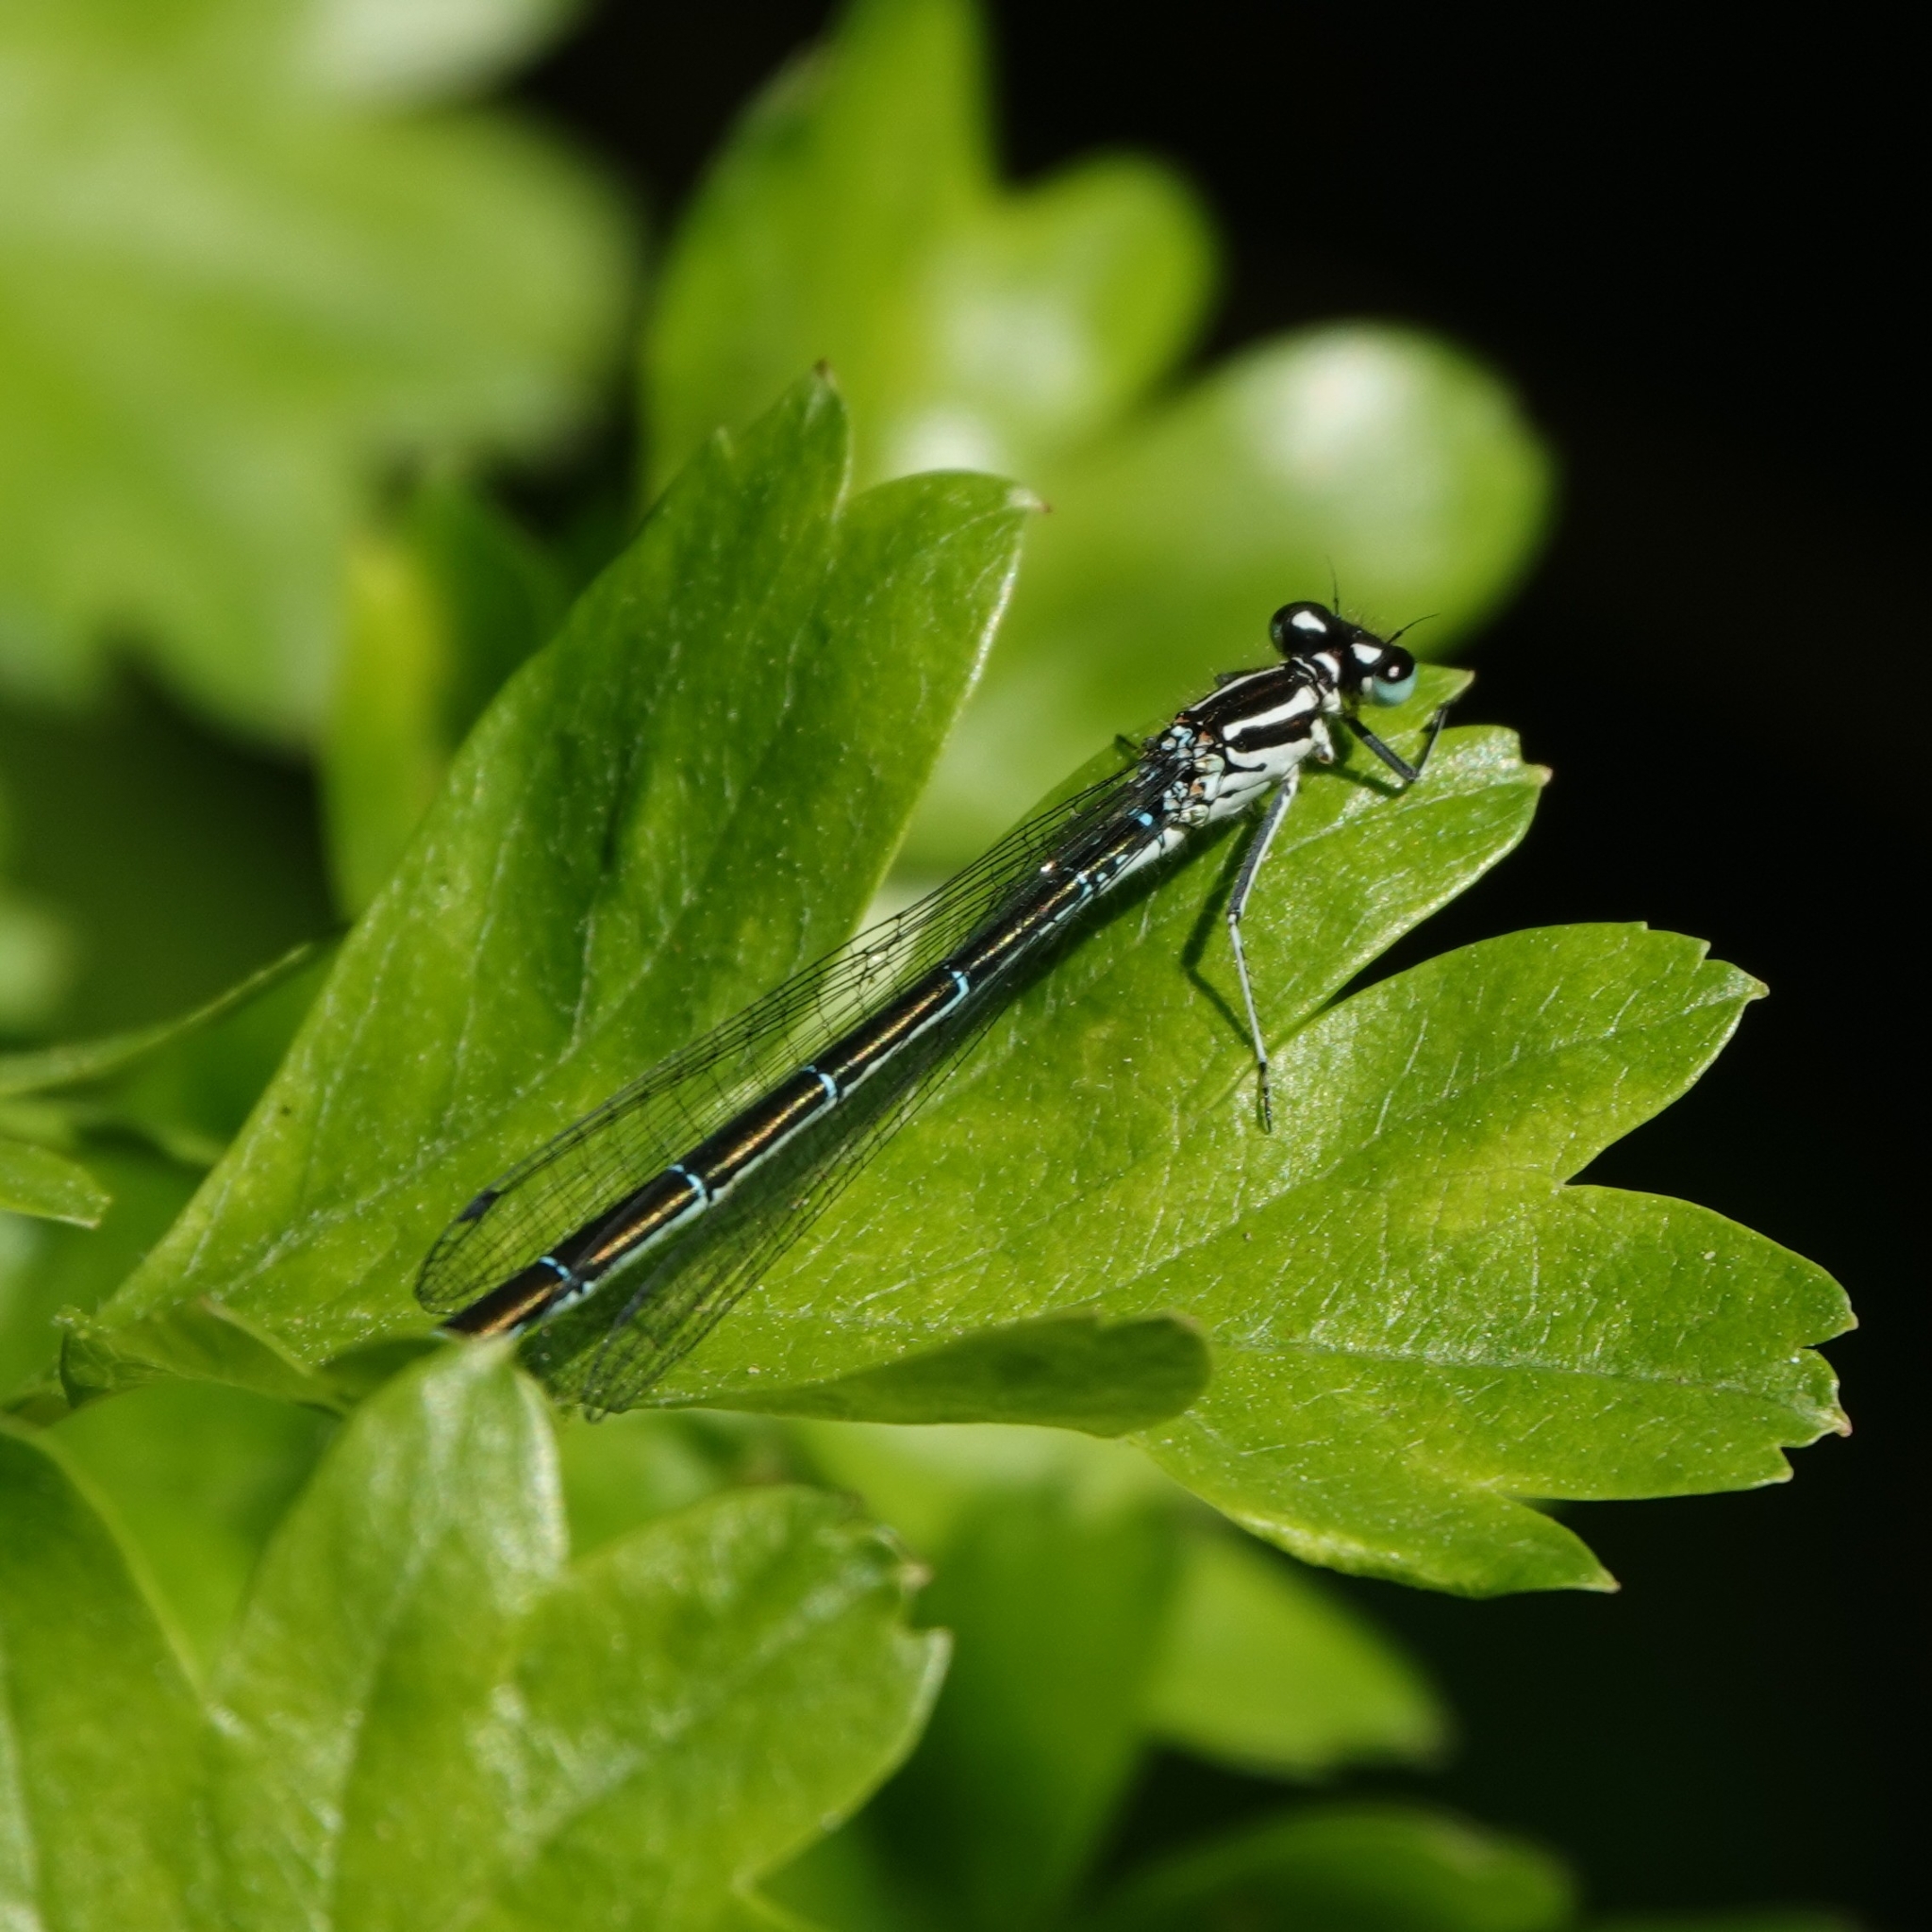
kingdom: Animalia
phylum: Arthropoda
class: Insecta
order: Odonata
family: Coenagrionidae
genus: Coenagrion
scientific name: Coenagrion puella
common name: Azure damselfly
